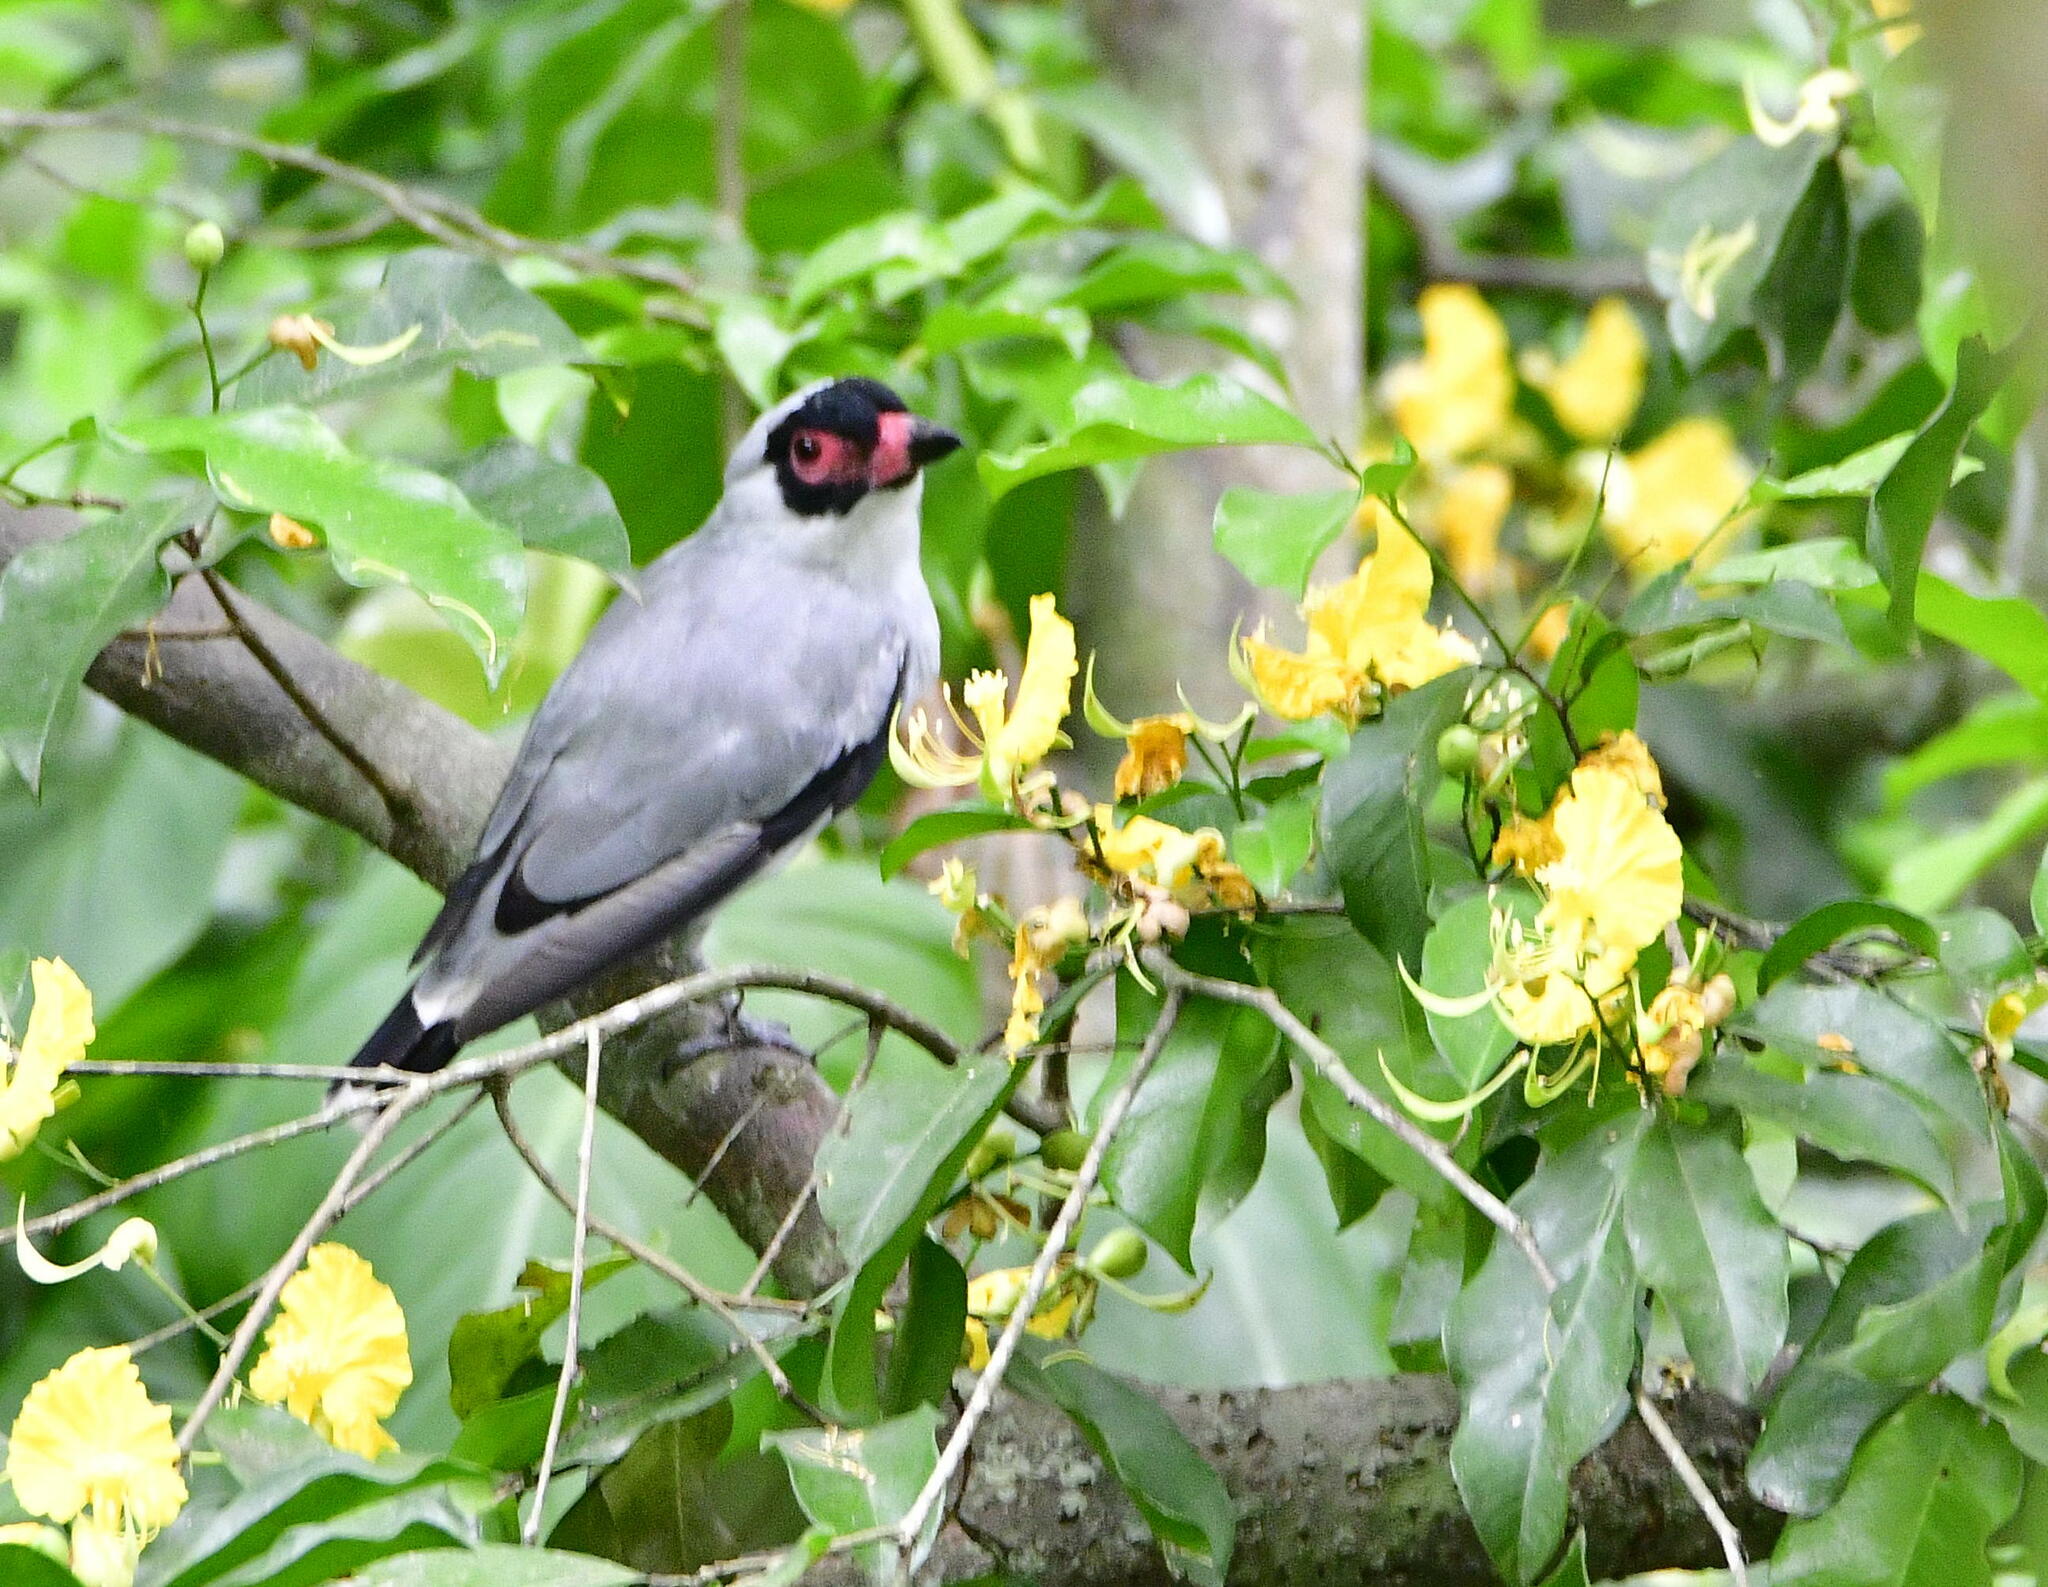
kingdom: Animalia
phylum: Chordata
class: Aves
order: Passeriformes
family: Cotingidae
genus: Tityra
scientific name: Tityra semifasciata
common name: Masked tityra
